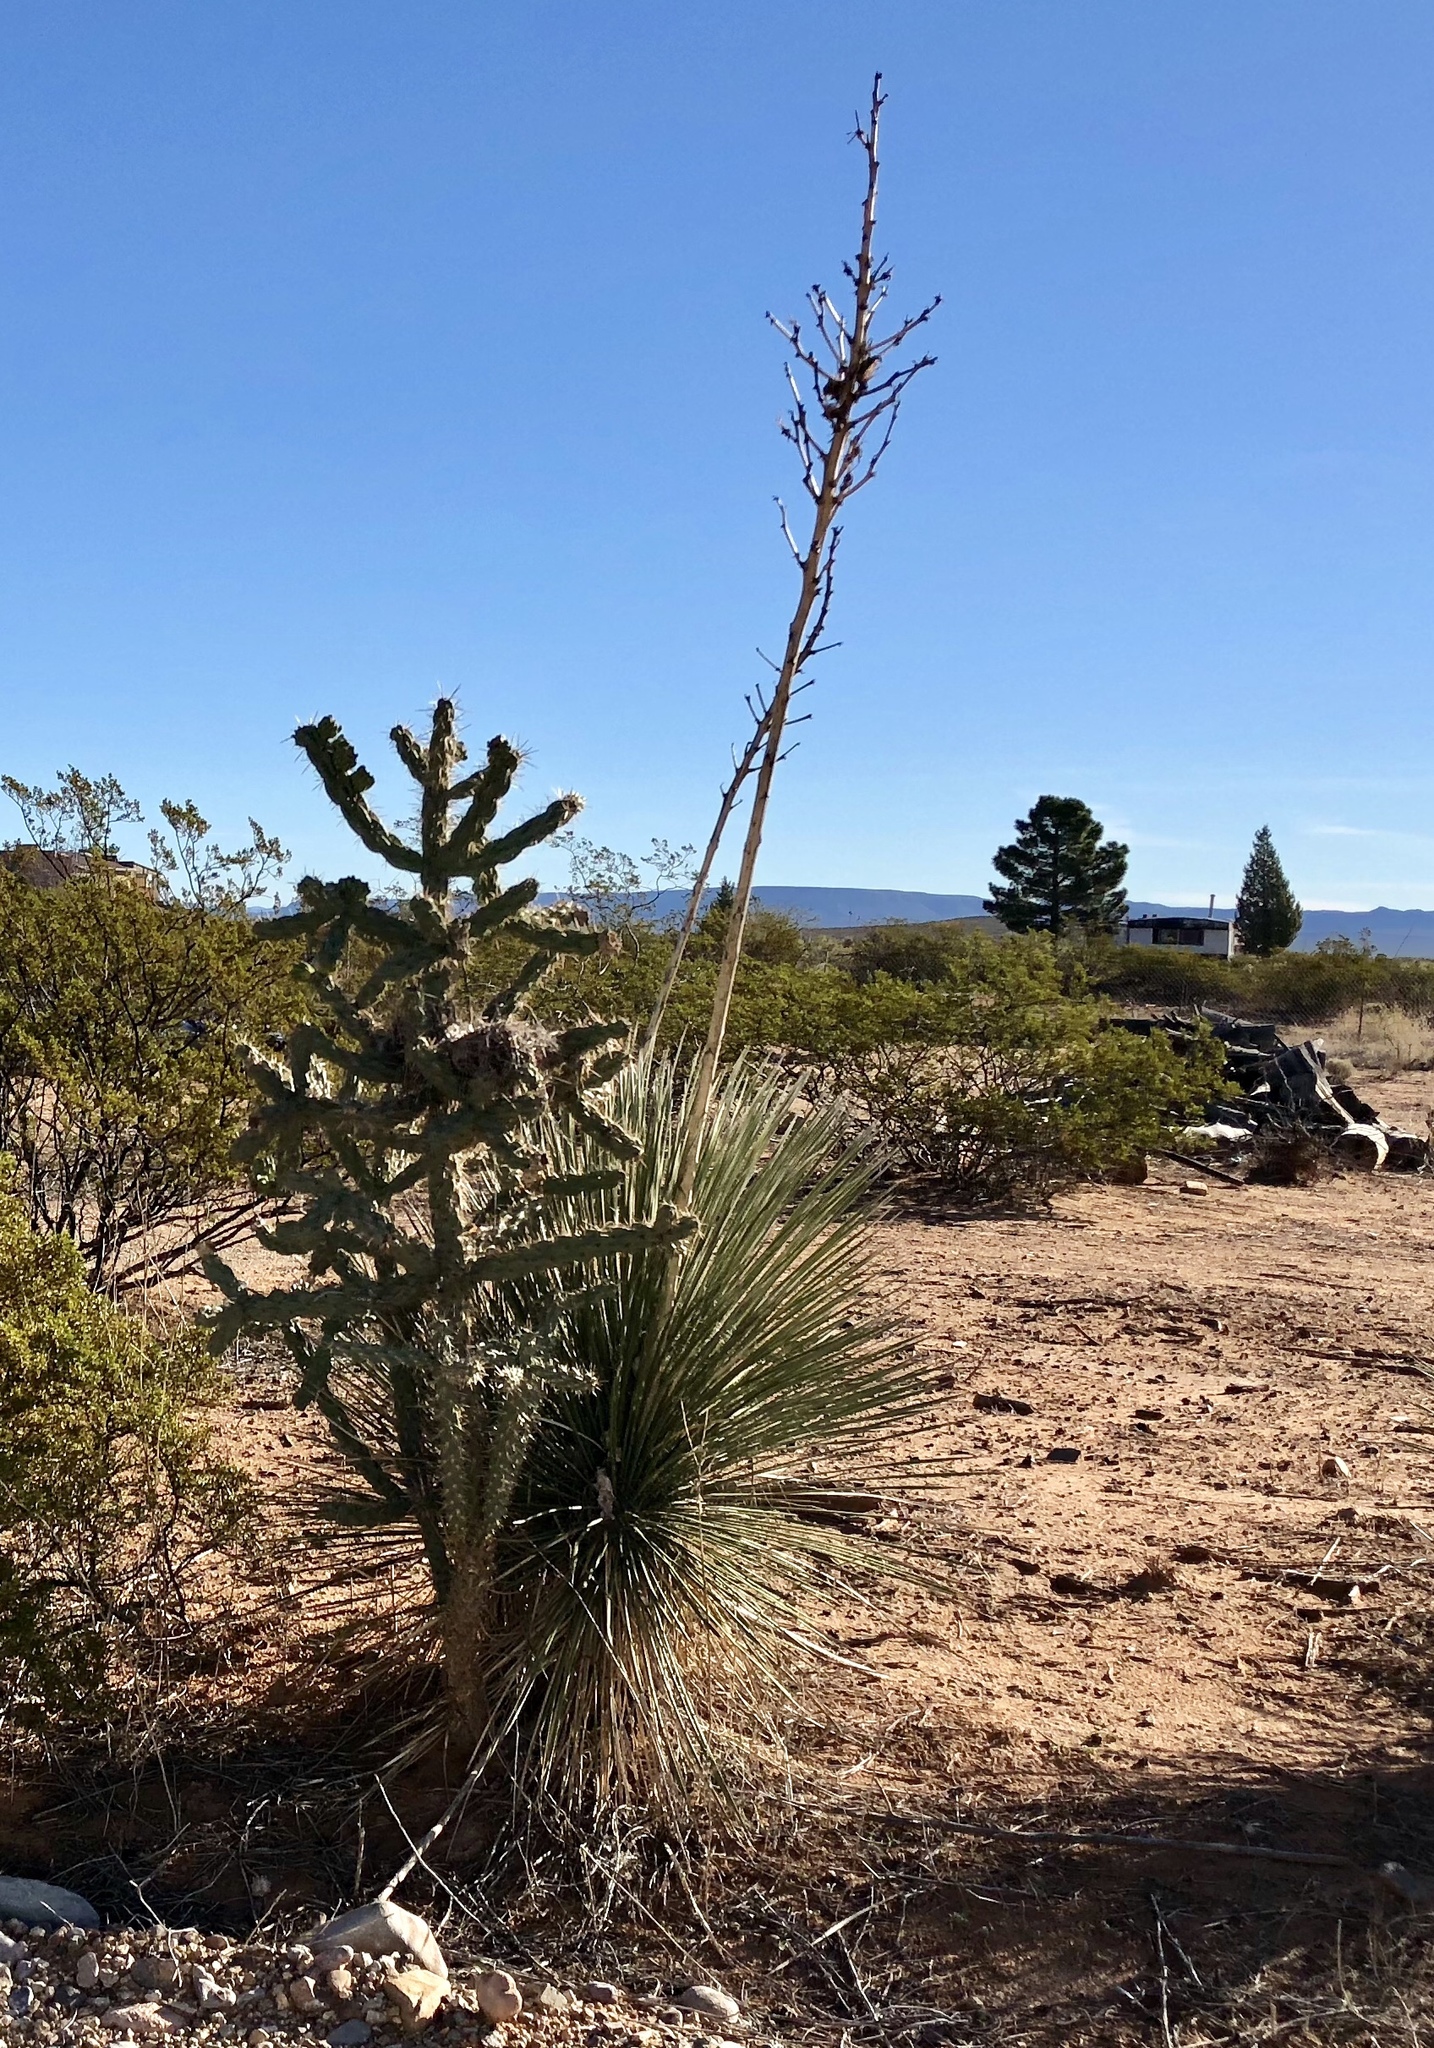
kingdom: Plantae
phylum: Tracheophyta
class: Liliopsida
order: Asparagales
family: Asparagaceae
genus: Yucca
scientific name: Yucca elata
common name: Palmella
